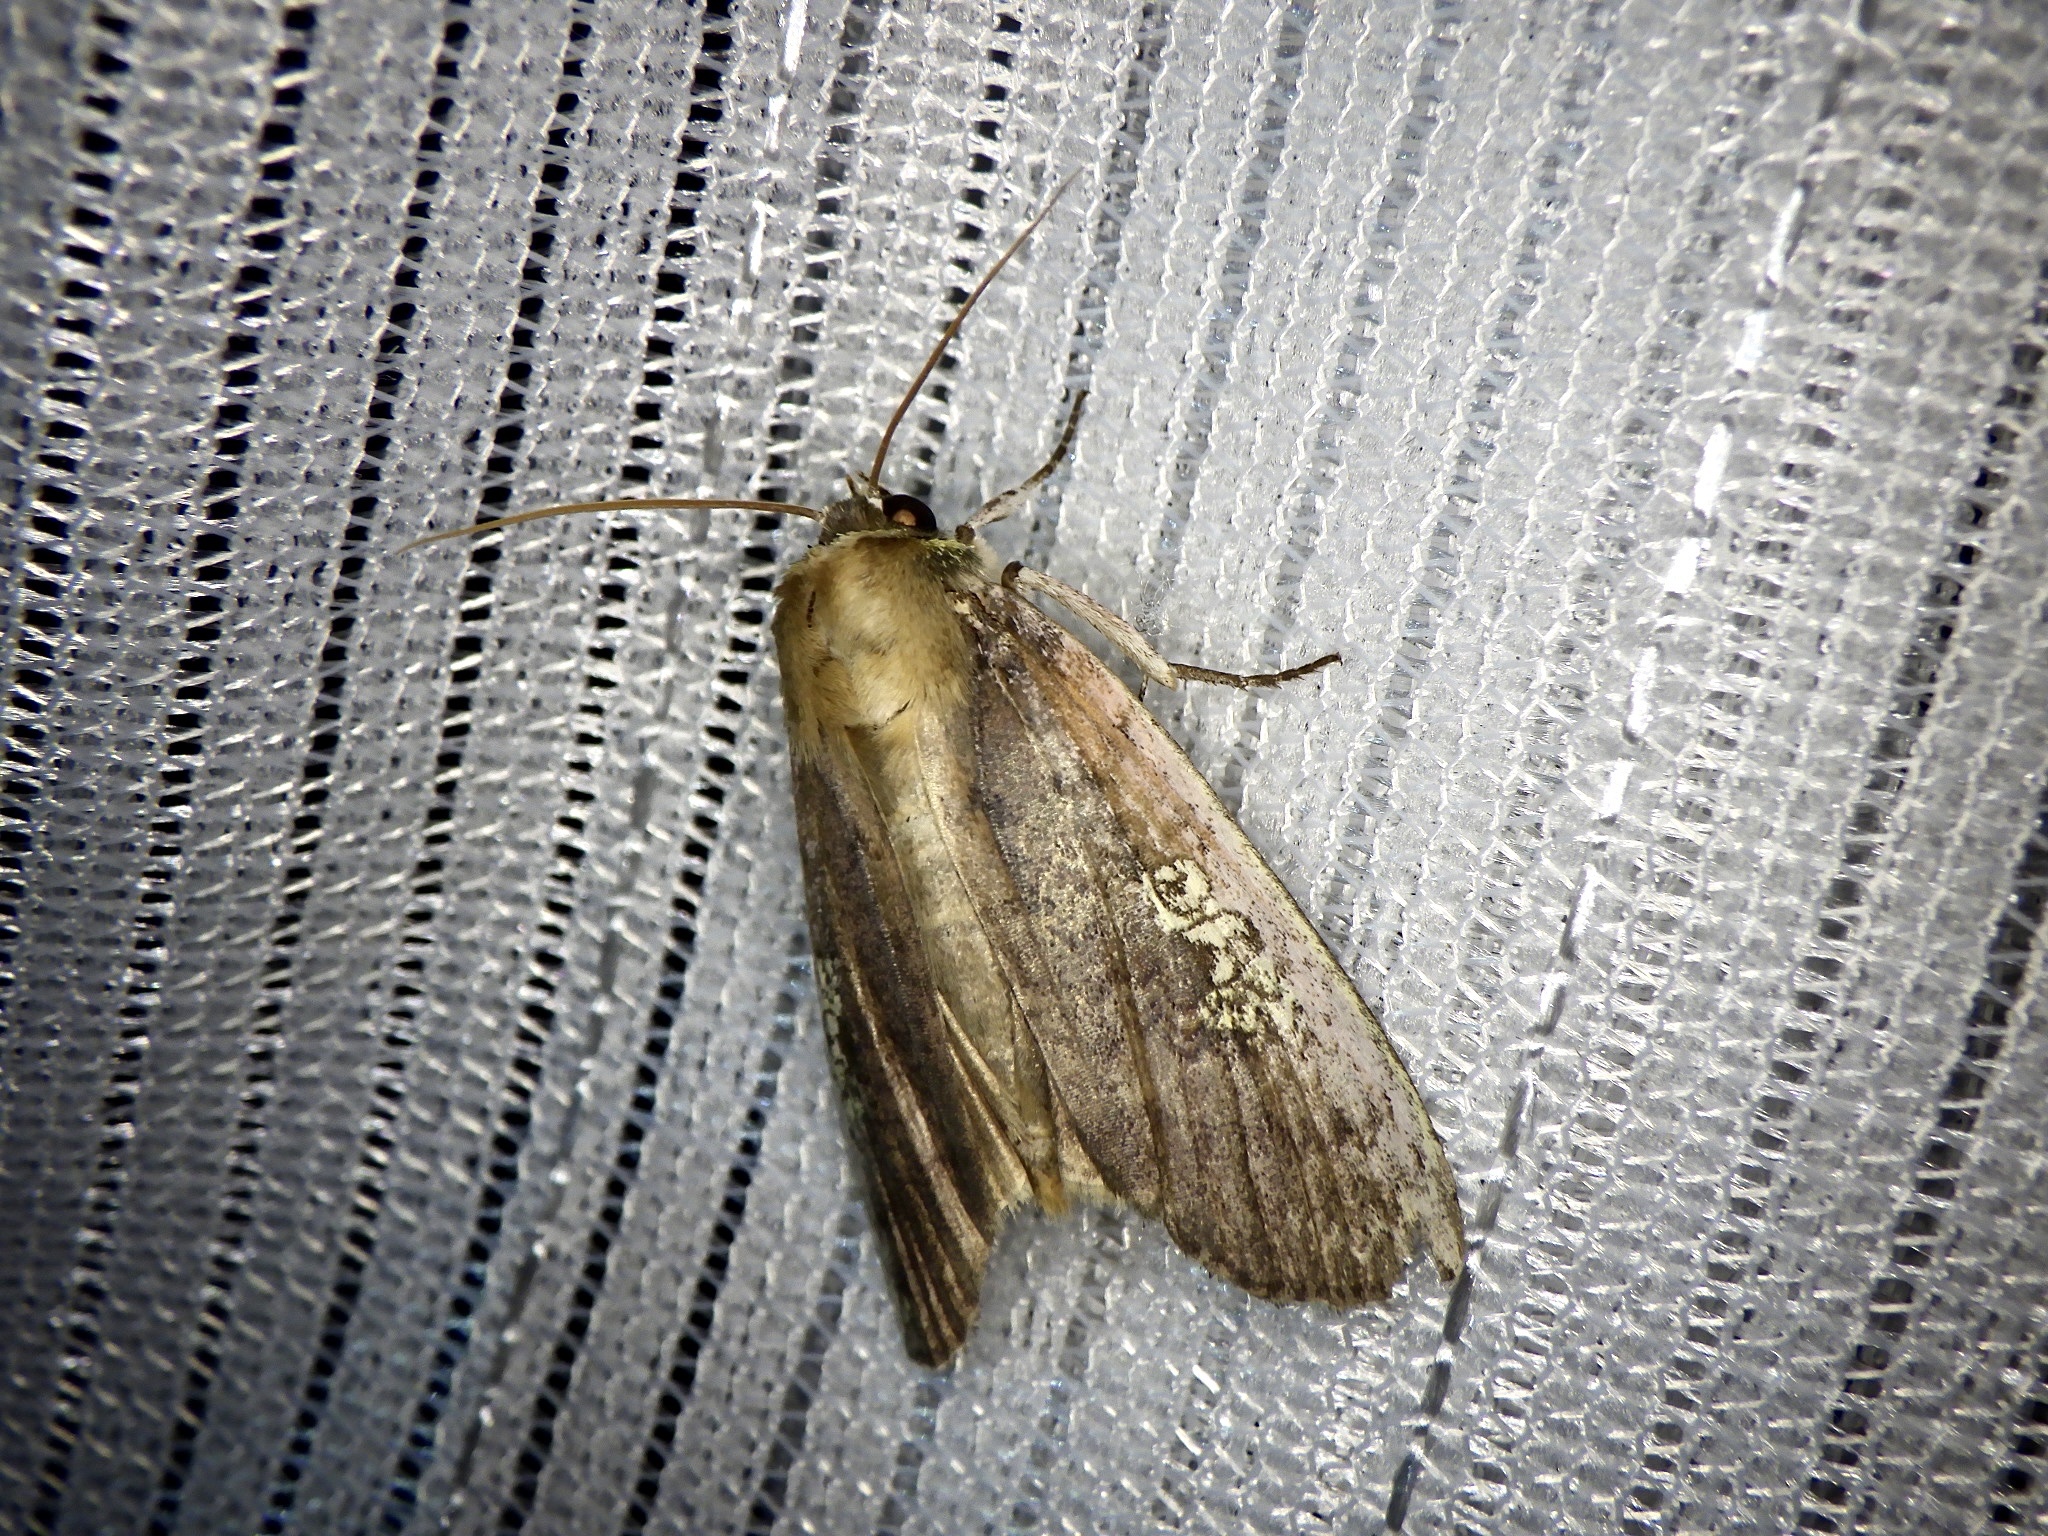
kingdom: Animalia
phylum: Arthropoda
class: Insecta
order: Lepidoptera
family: Drepanidae
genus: Tethea
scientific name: Tethea consimilis
